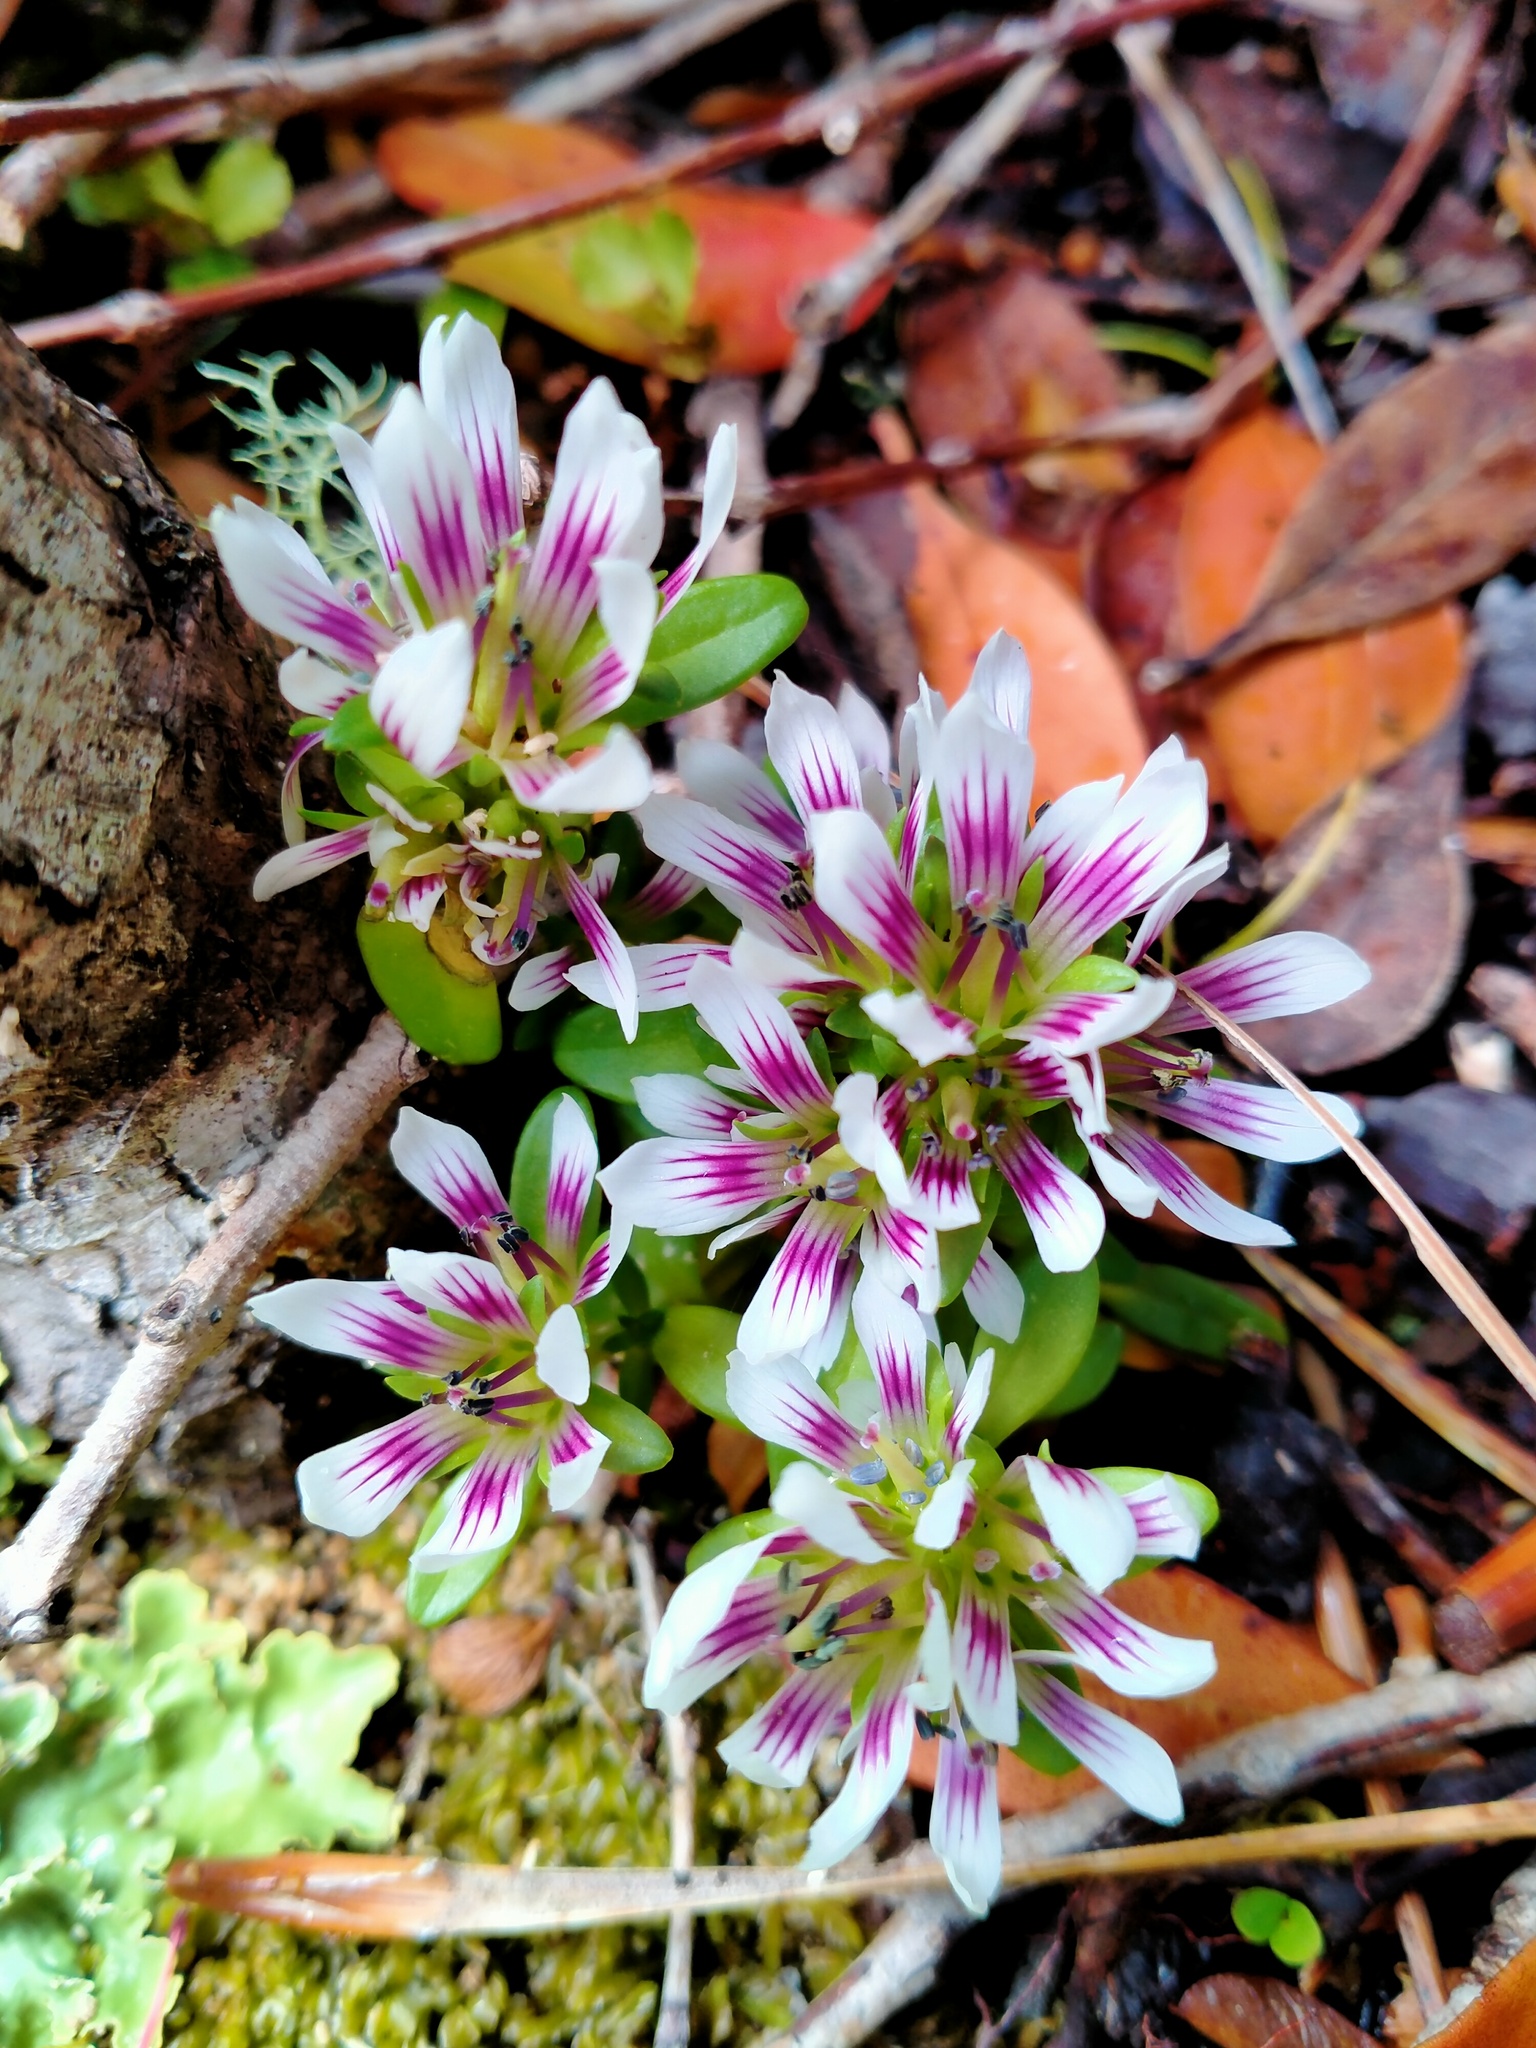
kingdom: Plantae
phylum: Tracheophyta
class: Magnoliopsida
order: Gentianales
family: Gentianaceae
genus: Gentianella
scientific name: Gentianella concinna
